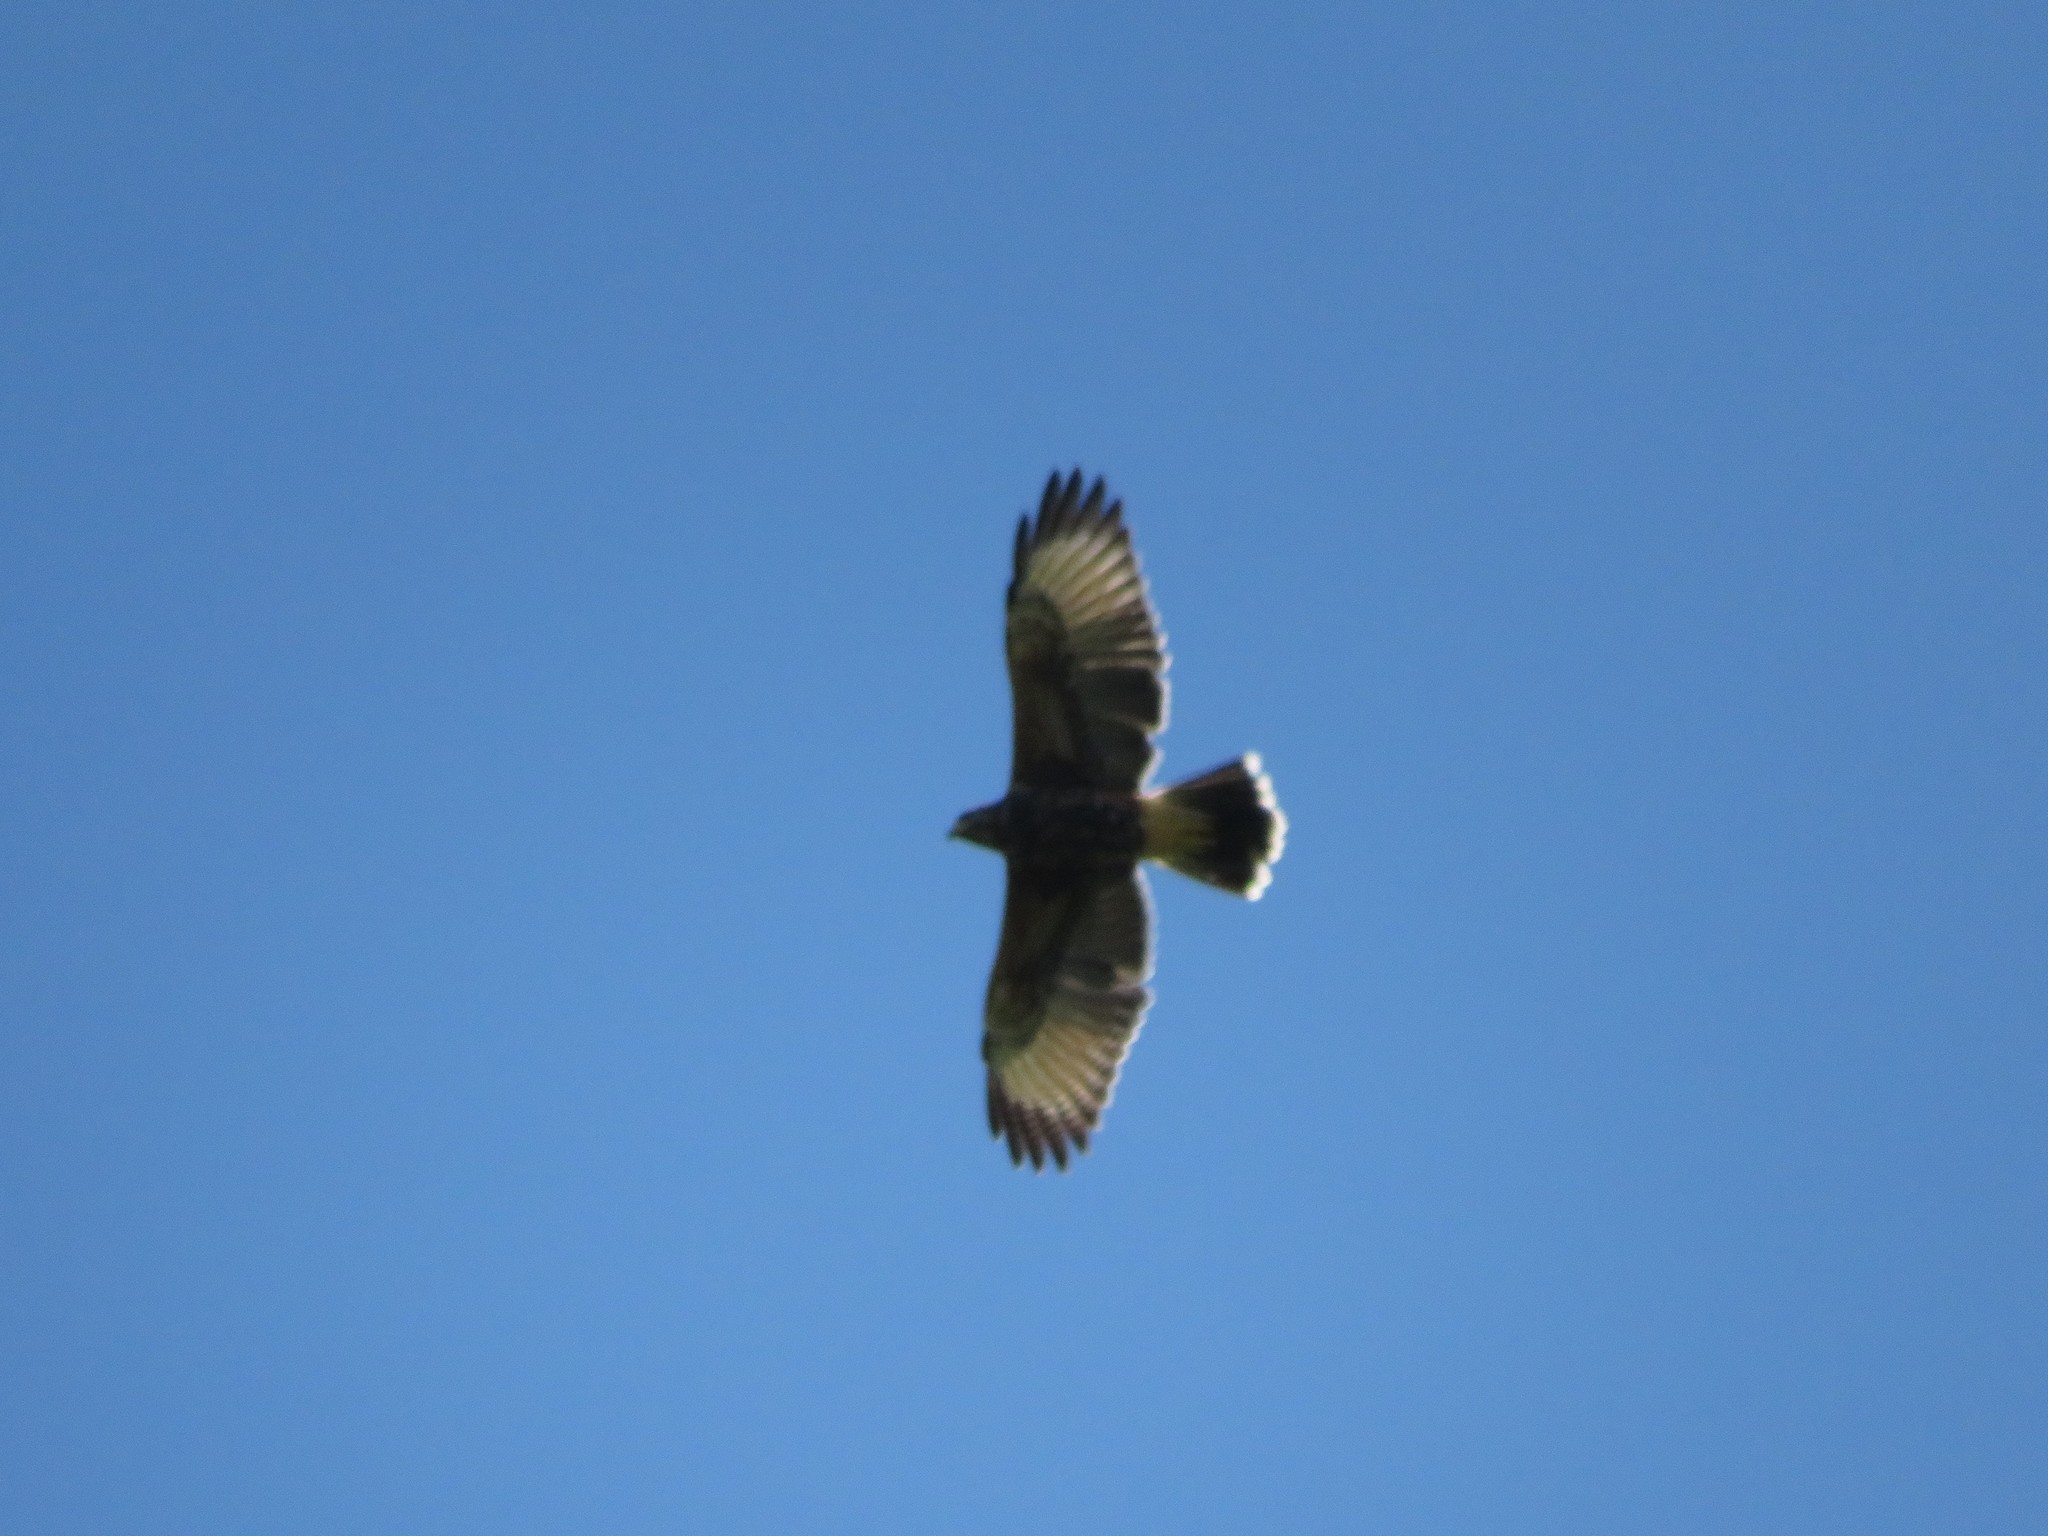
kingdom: Animalia
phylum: Chordata
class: Aves
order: Accipitriformes
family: Accipitridae
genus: Parabuteo
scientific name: Parabuteo unicinctus
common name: Harris's hawk
